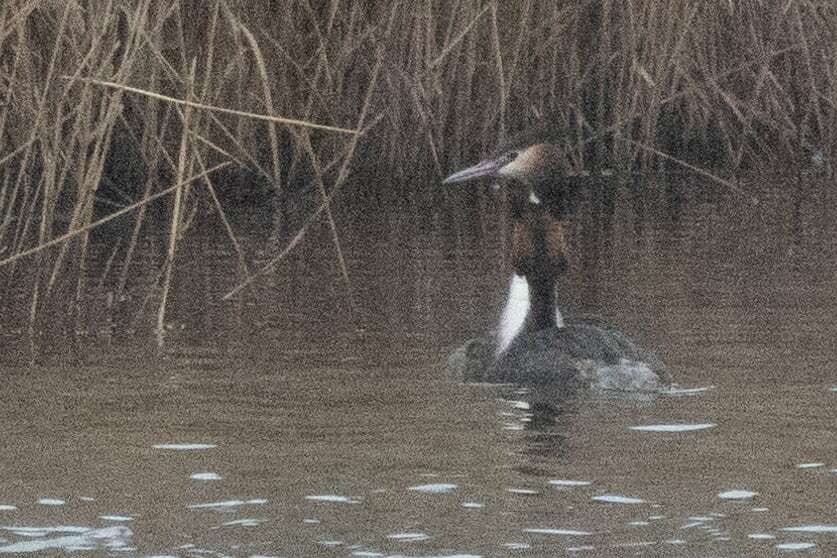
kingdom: Animalia
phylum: Chordata
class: Aves
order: Podicipediformes
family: Podicipedidae
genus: Podiceps
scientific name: Podiceps cristatus
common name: Great crested grebe
